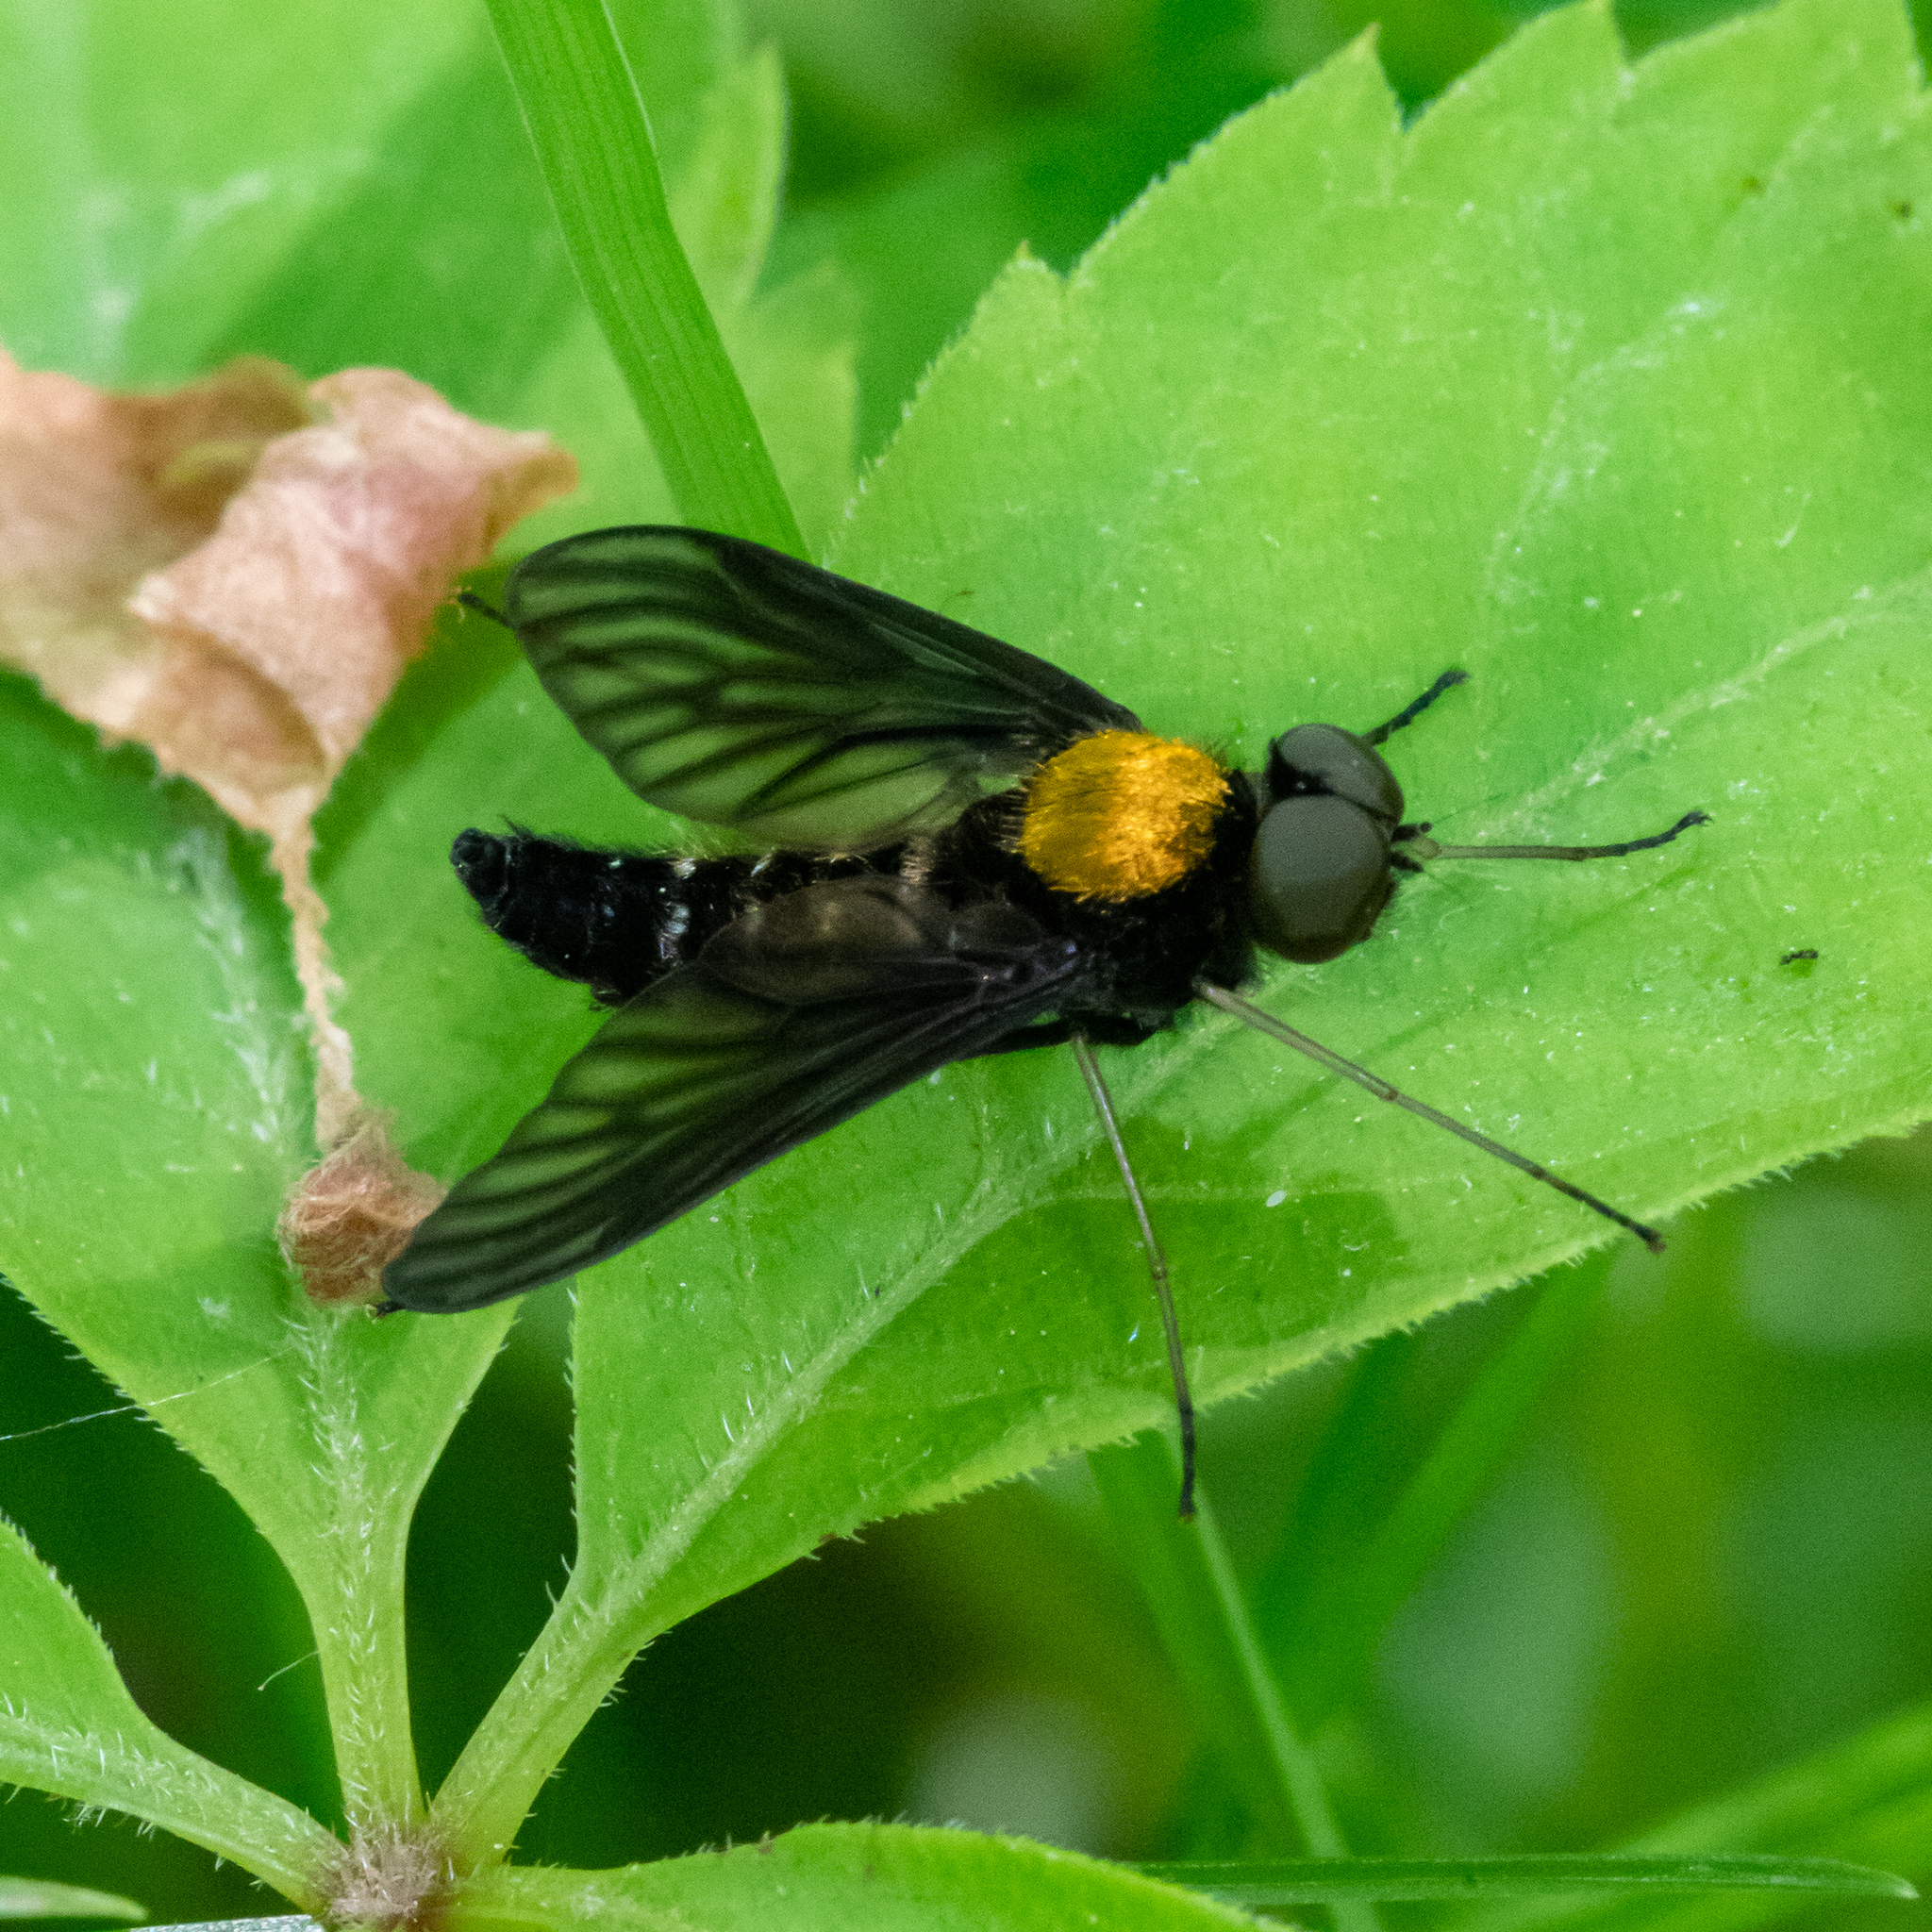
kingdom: Animalia
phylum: Arthropoda
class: Insecta
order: Diptera
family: Rhagionidae
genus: Chrysopilus
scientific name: Chrysopilus thoracicus
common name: Golden-backed snipe fly
